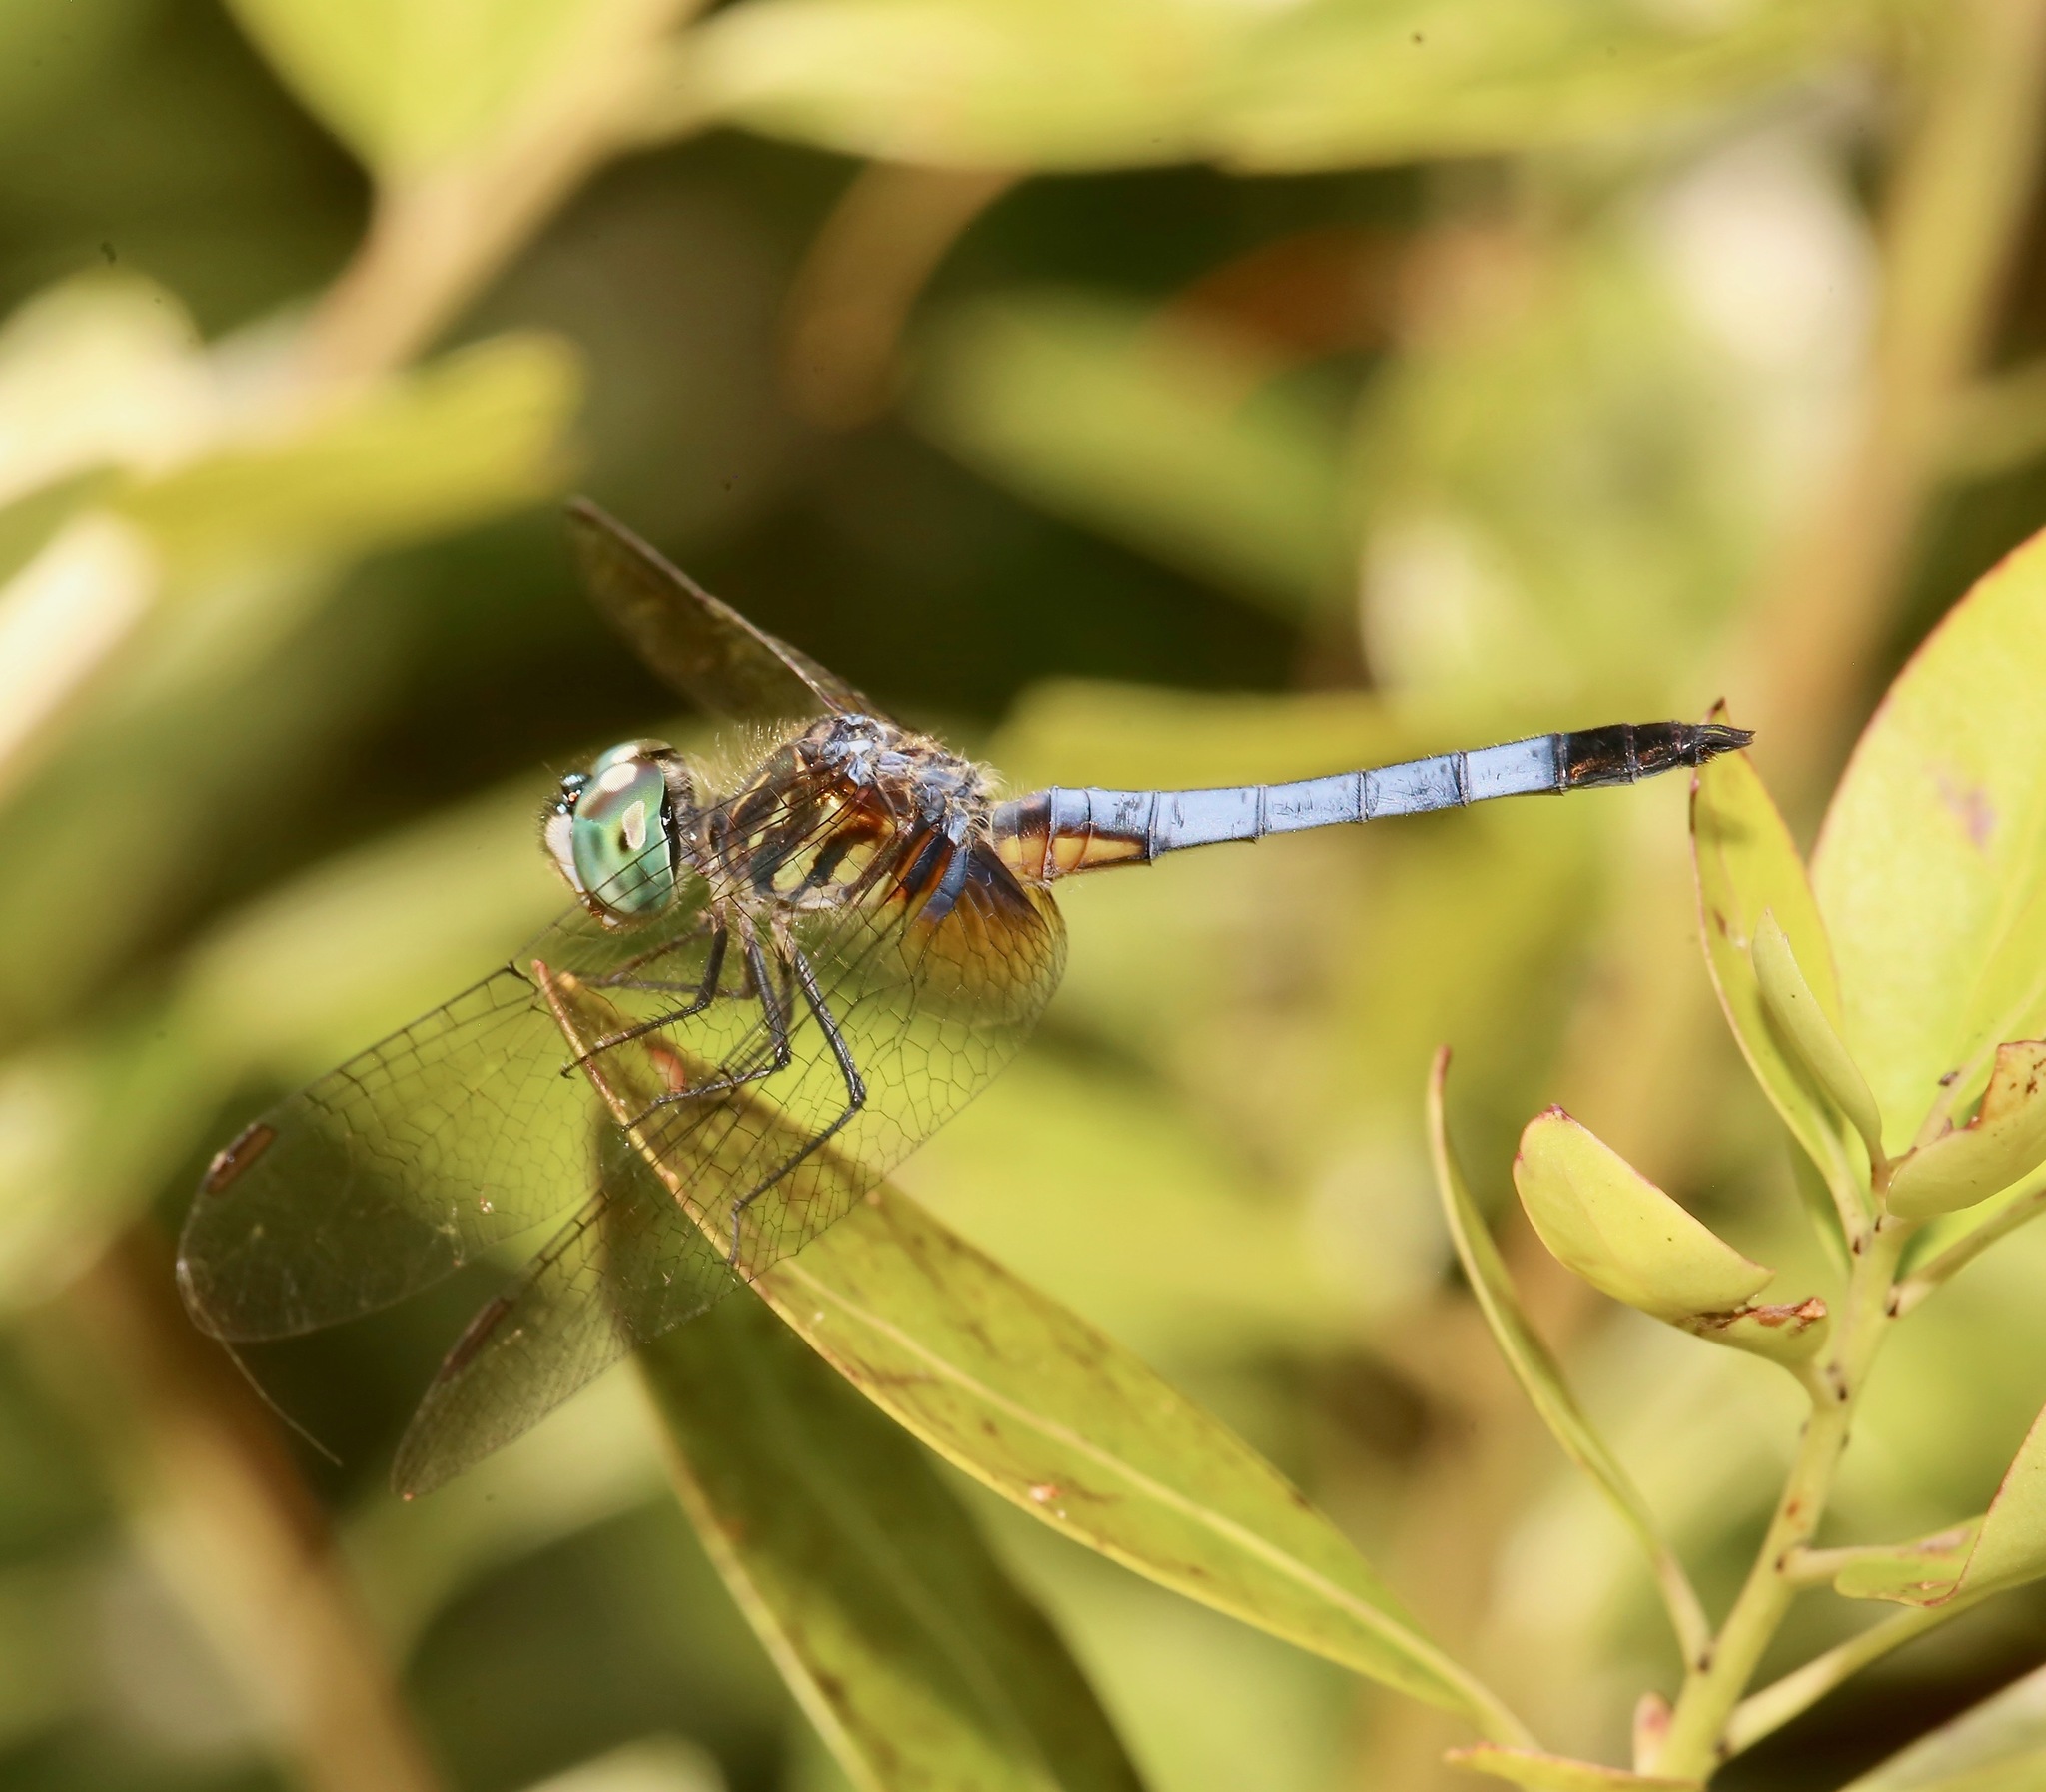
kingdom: Animalia
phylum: Arthropoda
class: Insecta
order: Odonata
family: Libellulidae
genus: Pachydiplax
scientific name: Pachydiplax longipennis
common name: Blue dasher
